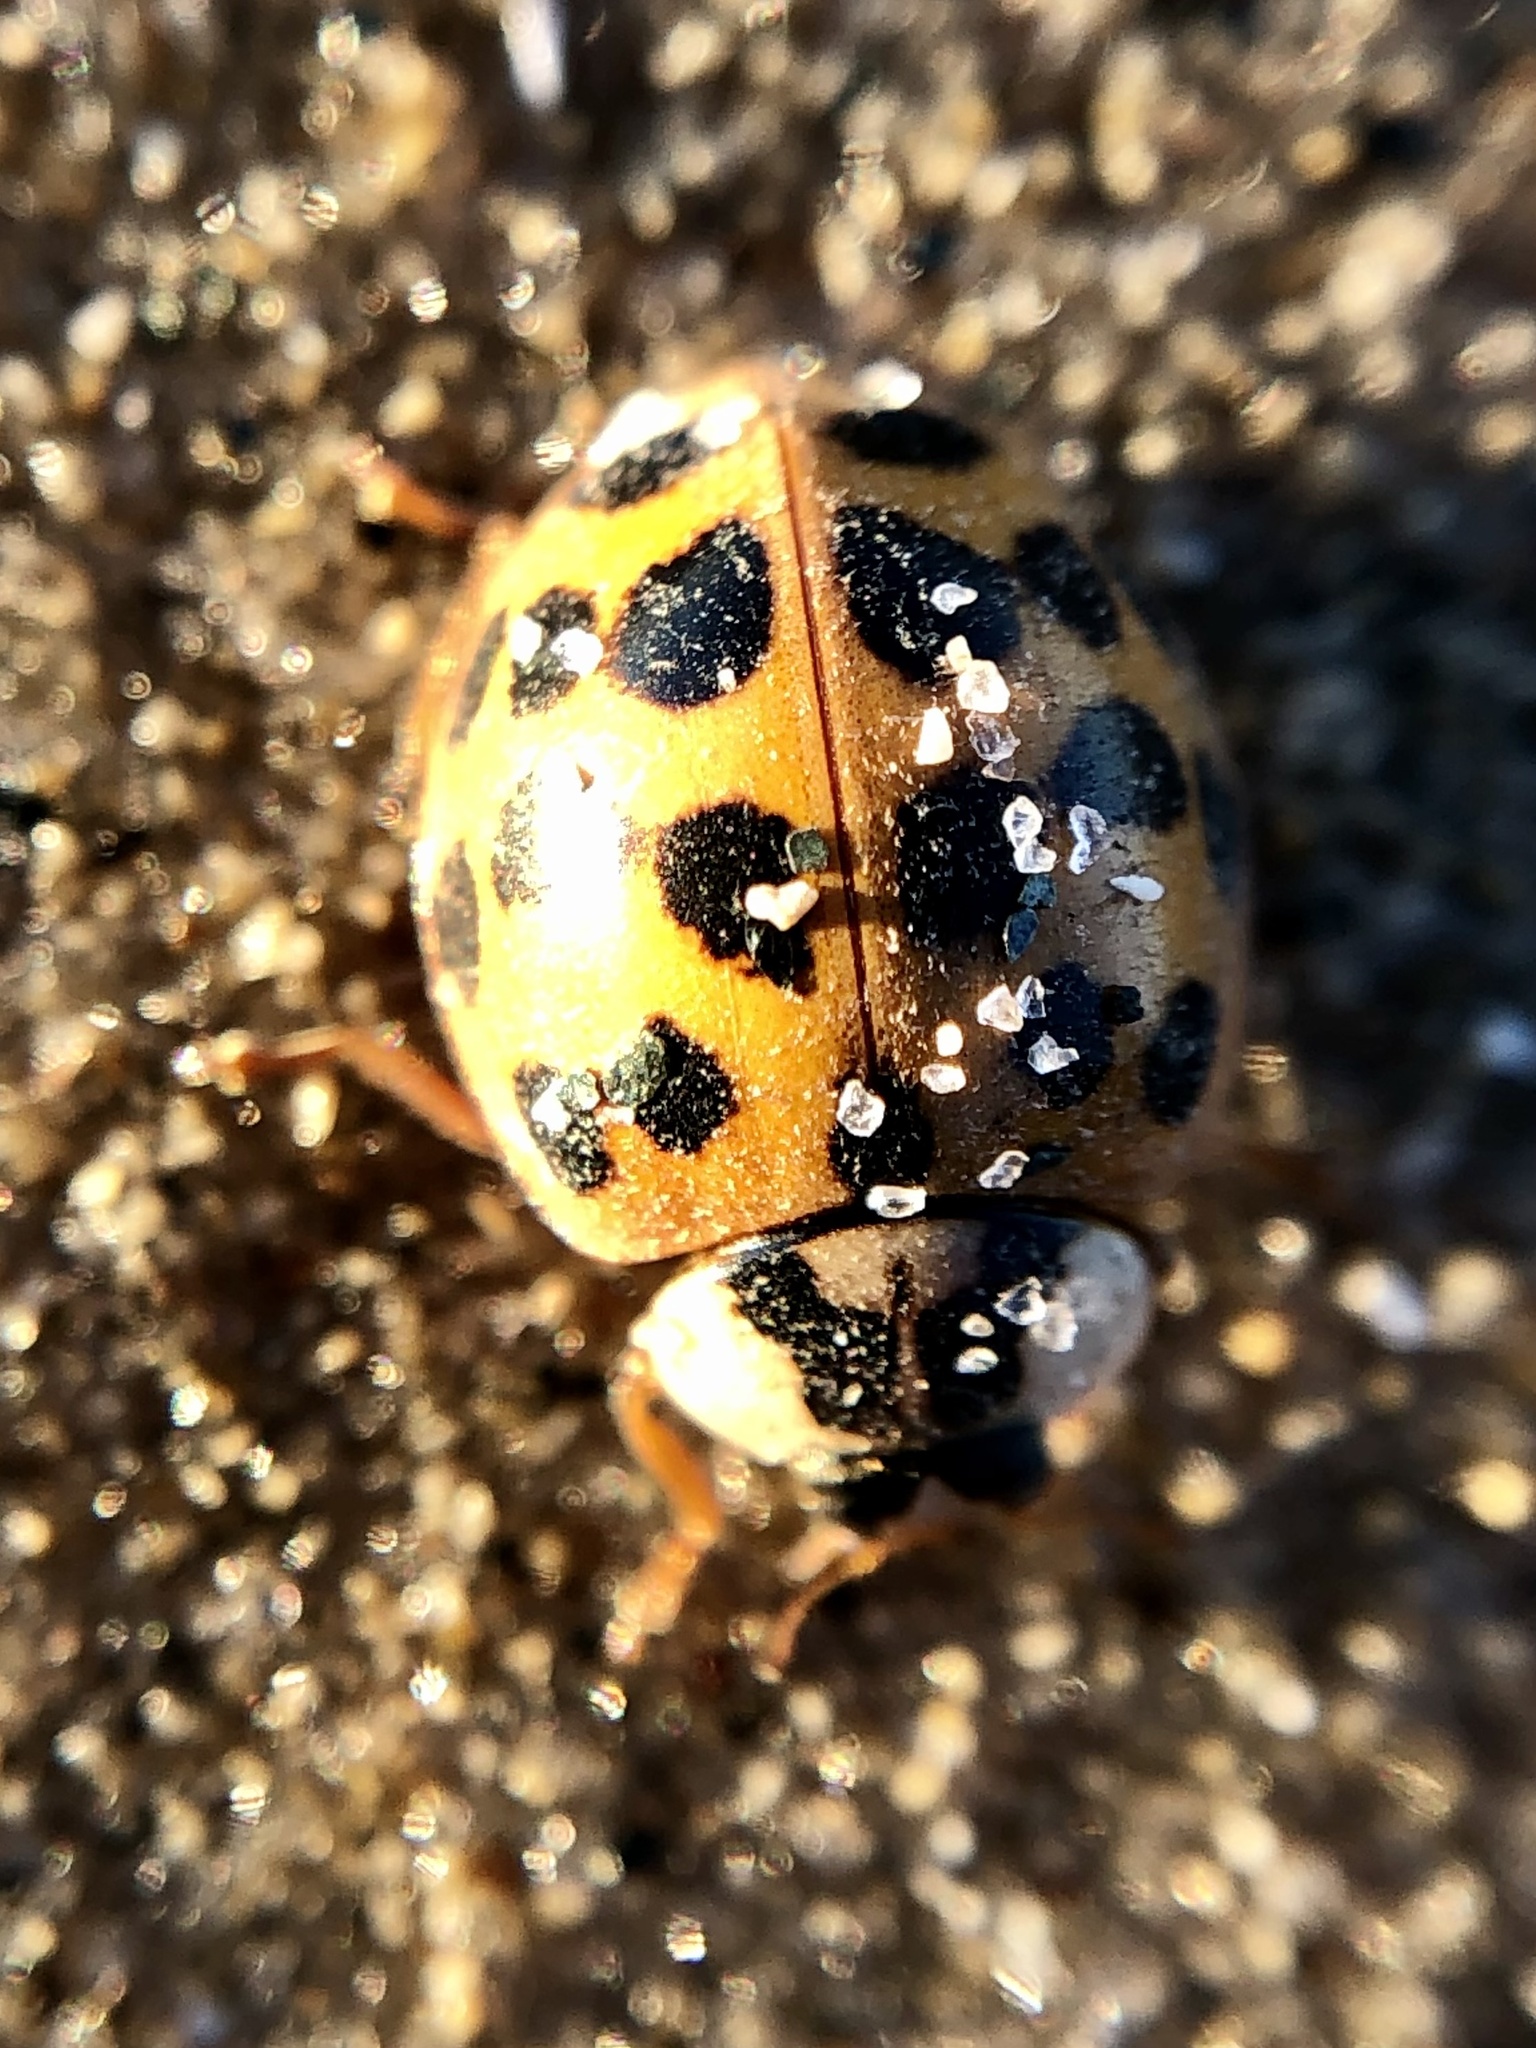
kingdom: Animalia
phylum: Arthropoda
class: Insecta
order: Coleoptera
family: Coccinellidae
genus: Harmonia
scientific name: Harmonia axyridis
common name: Harlequin ladybird
